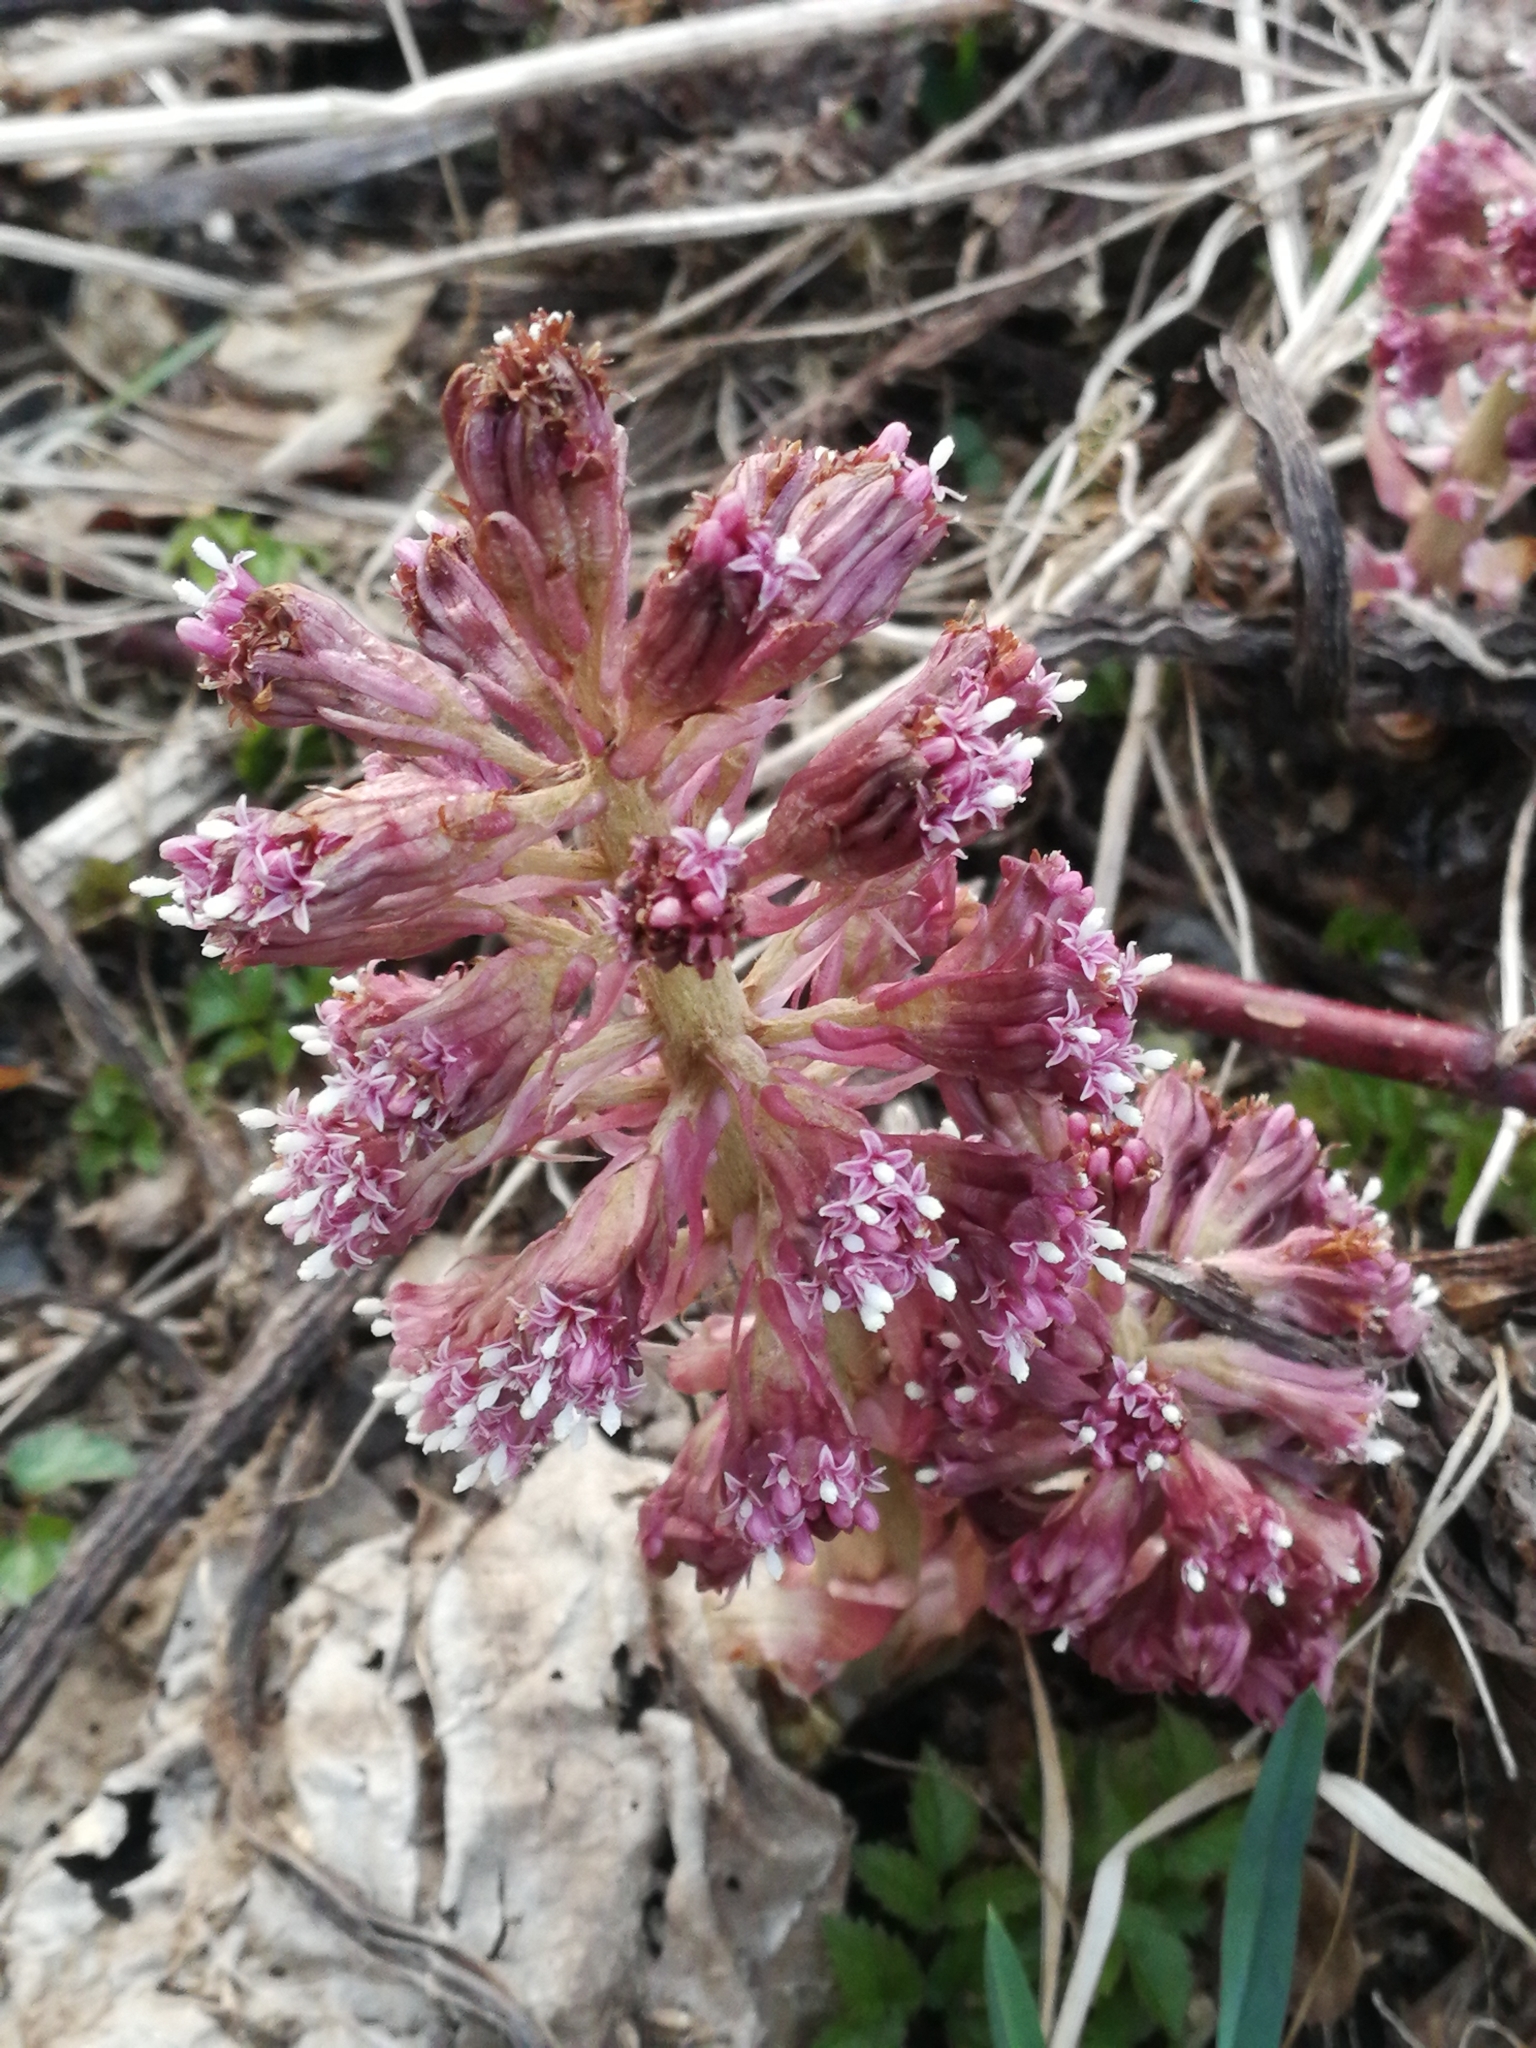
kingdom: Plantae
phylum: Tracheophyta
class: Magnoliopsida
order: Asterales
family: Asteraceae
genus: Petasites
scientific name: Petasites hybridus
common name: Butterbur
